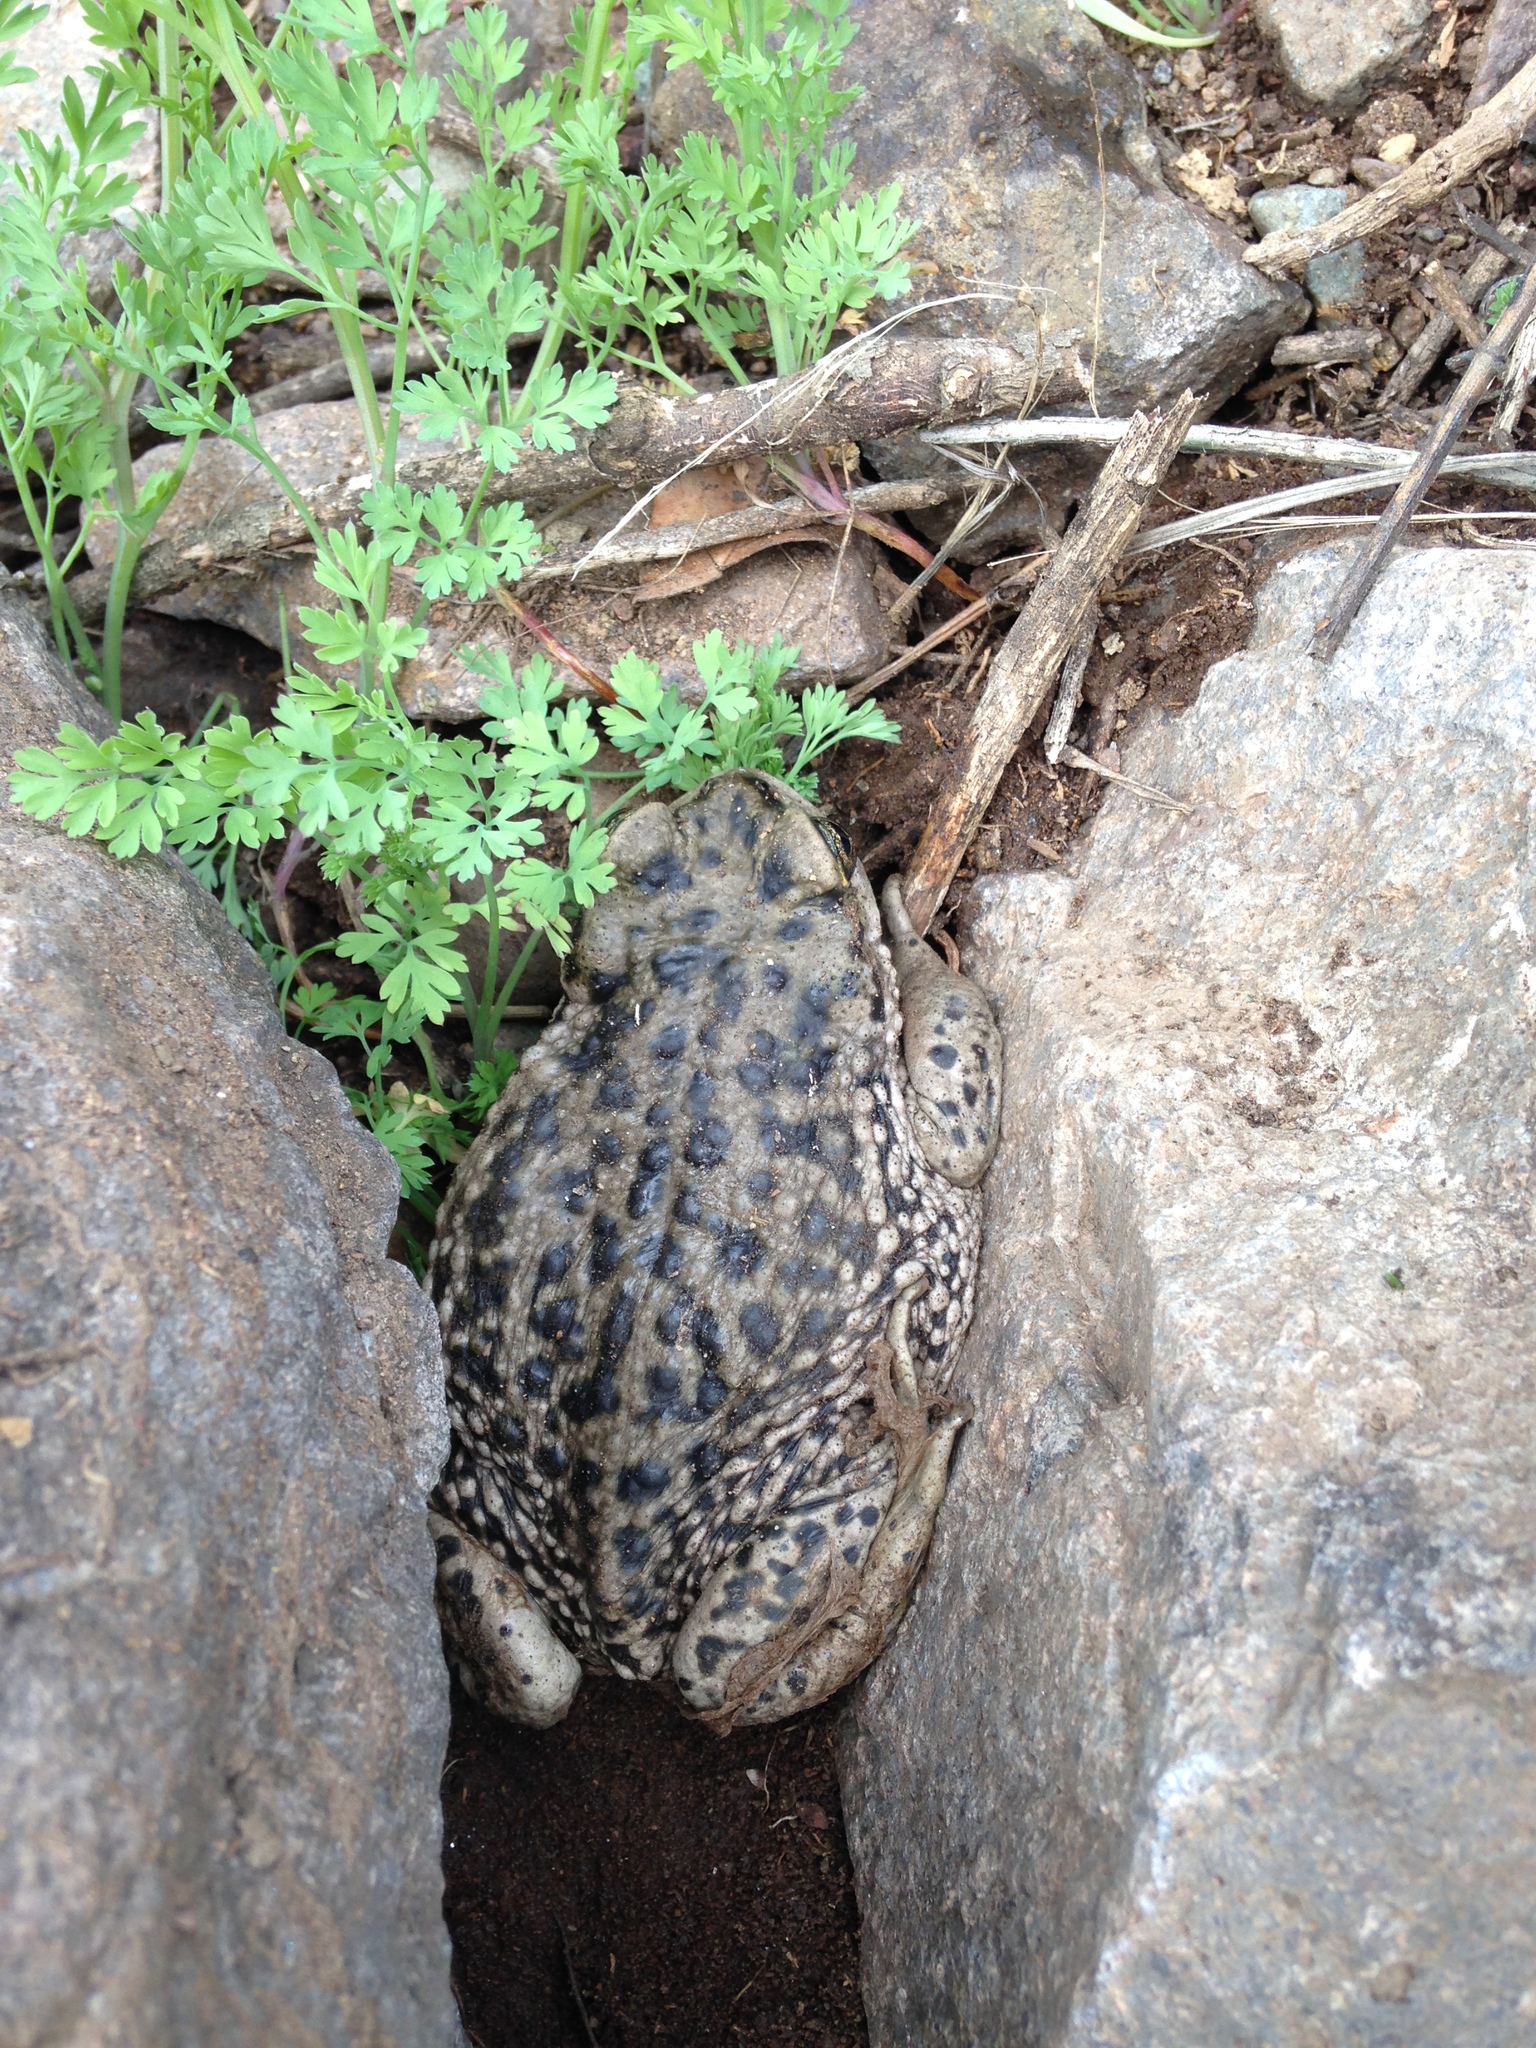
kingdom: Animalia
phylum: Chordata
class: Amphibia
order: Anura
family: Bufonidae
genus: Rhinella
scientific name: Rhinella arunco
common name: Concepcion toad
